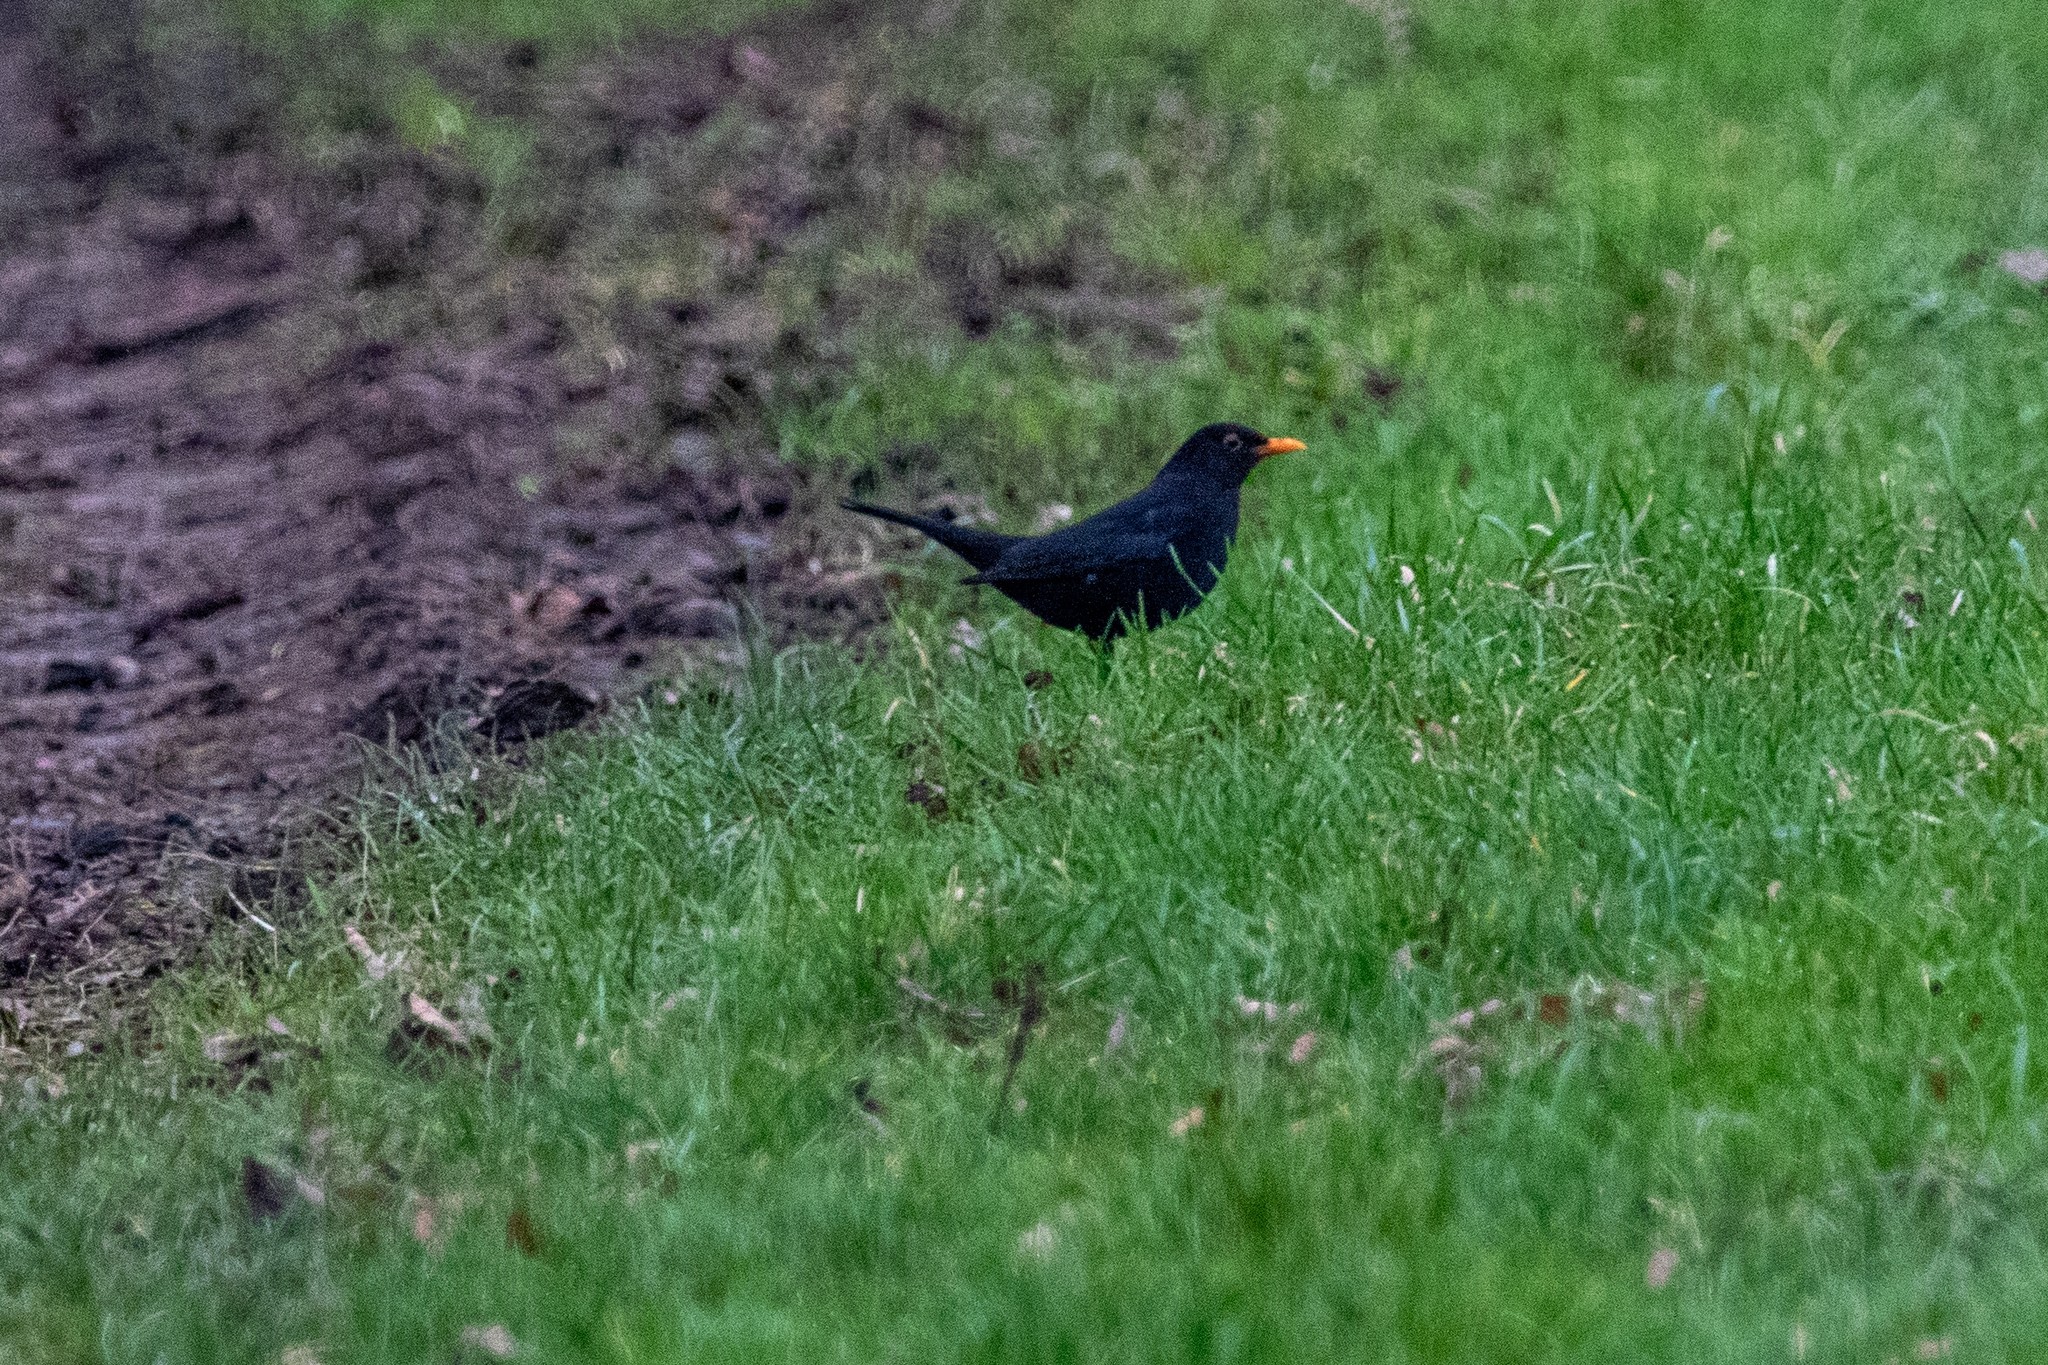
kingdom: Animalia
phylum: Chordata
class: Aves
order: Passeriformes
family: Turdidae
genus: Turdus
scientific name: Turdus merula
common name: Common blackbird
